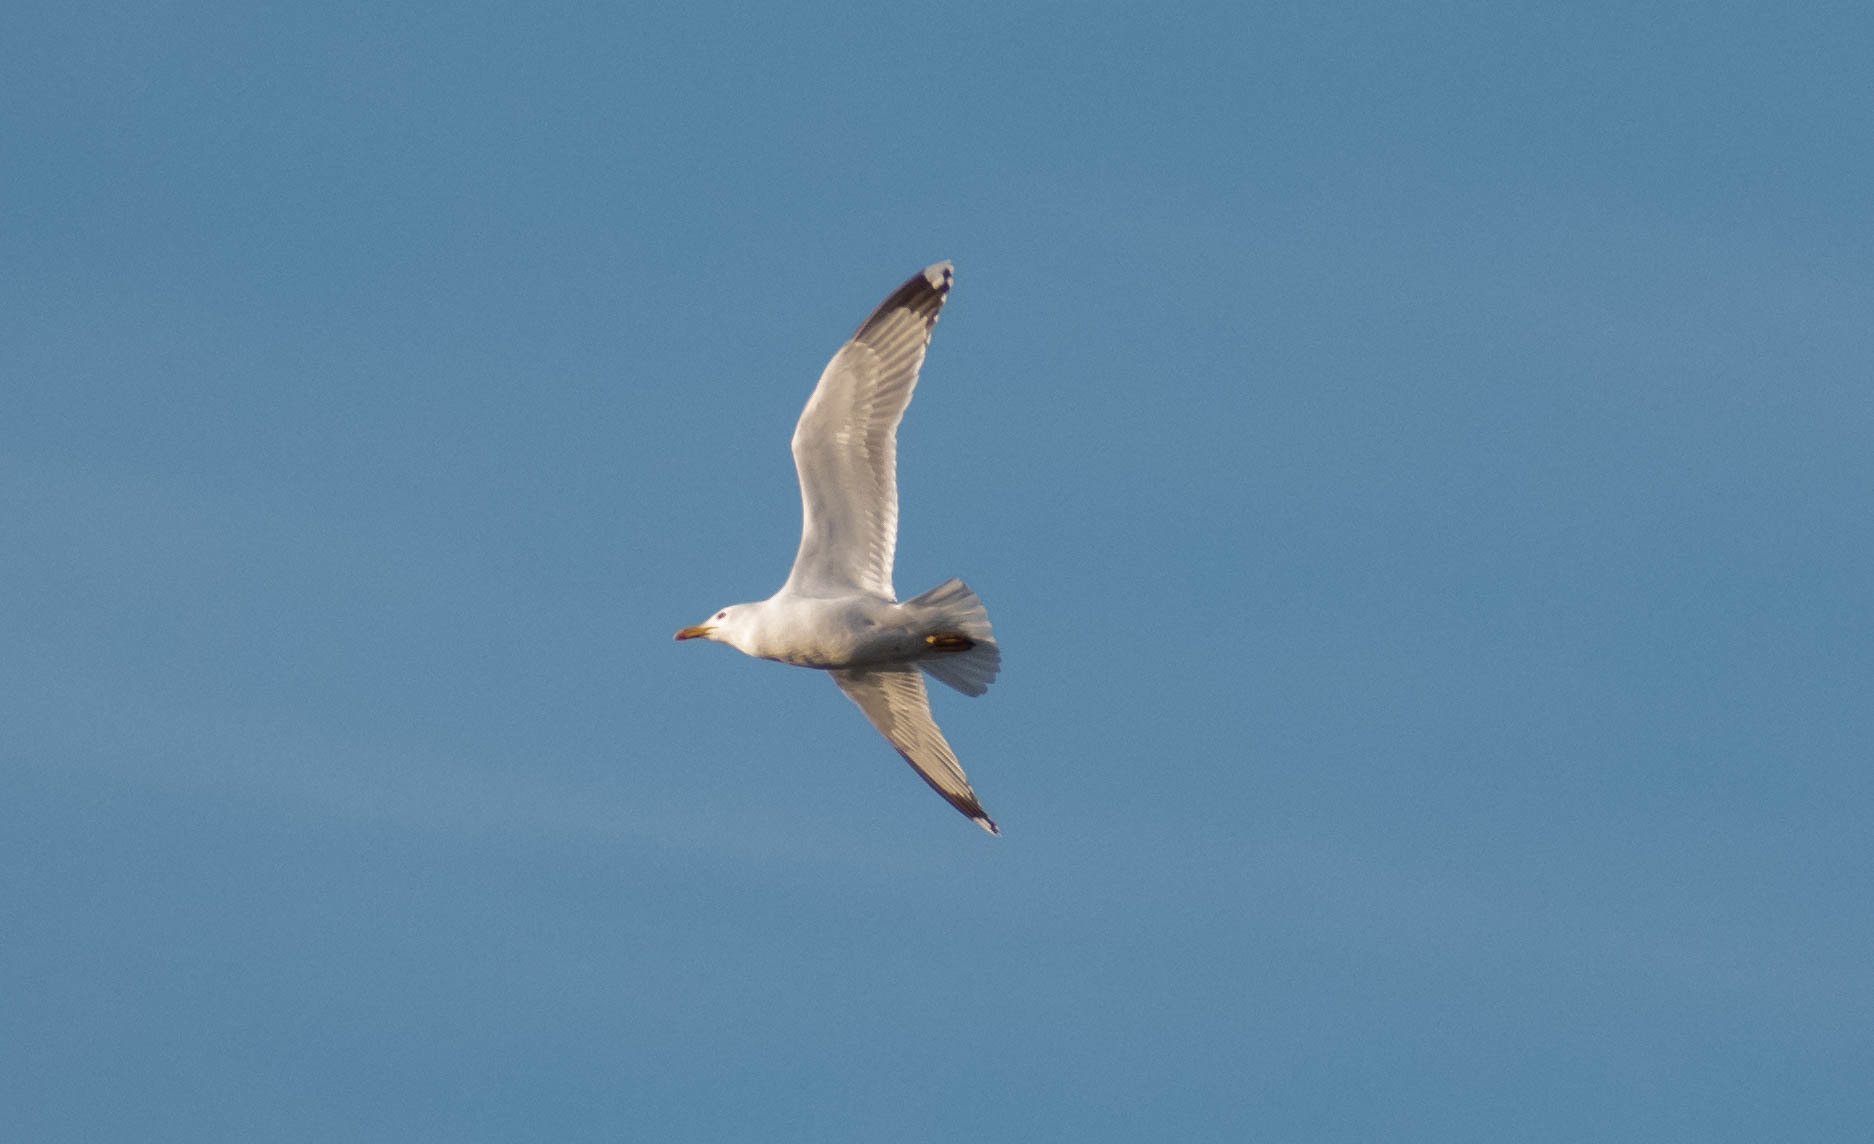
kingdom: Animalia
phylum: Chordata
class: Aves
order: Charadriiformes
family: Laridae
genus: Larus
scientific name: Larus argentatus
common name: Herring gull
